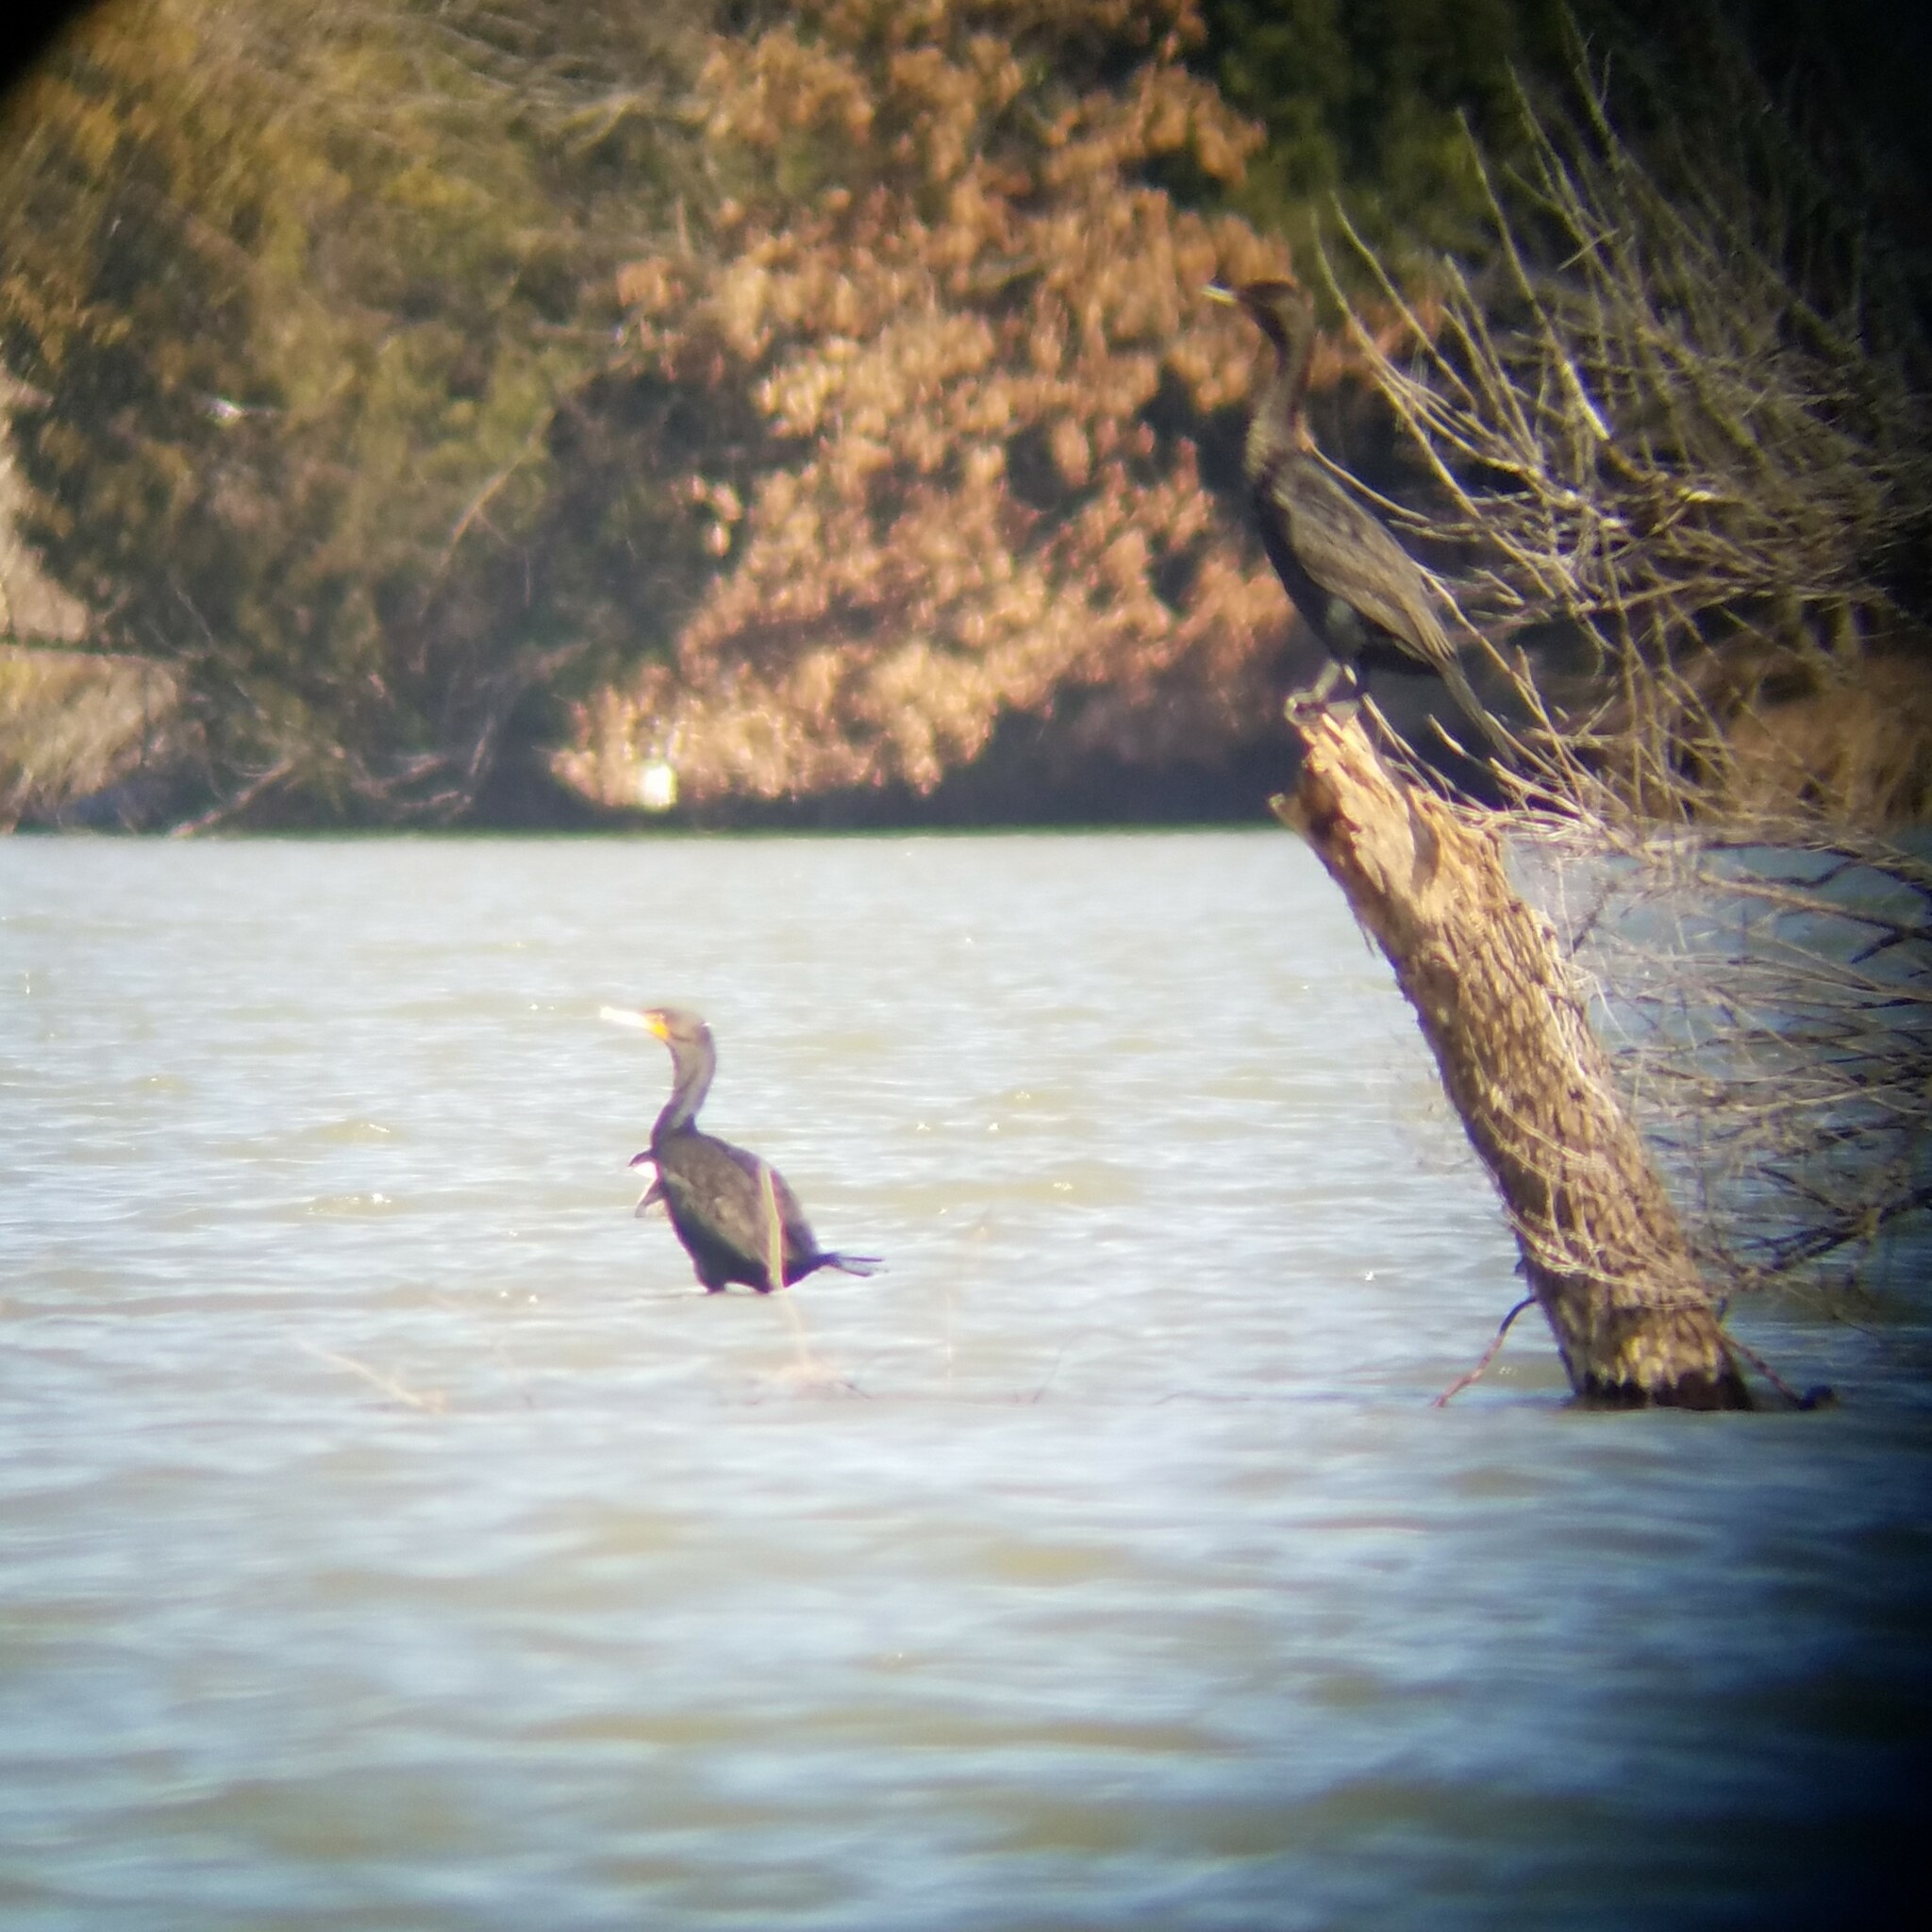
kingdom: Animalia
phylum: Chordata
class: Aves
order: Suliformes
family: Phalacrocoracidae
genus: Phalacrocorax
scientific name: Phalacrocorax auritus
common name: Double-crested cormorant
